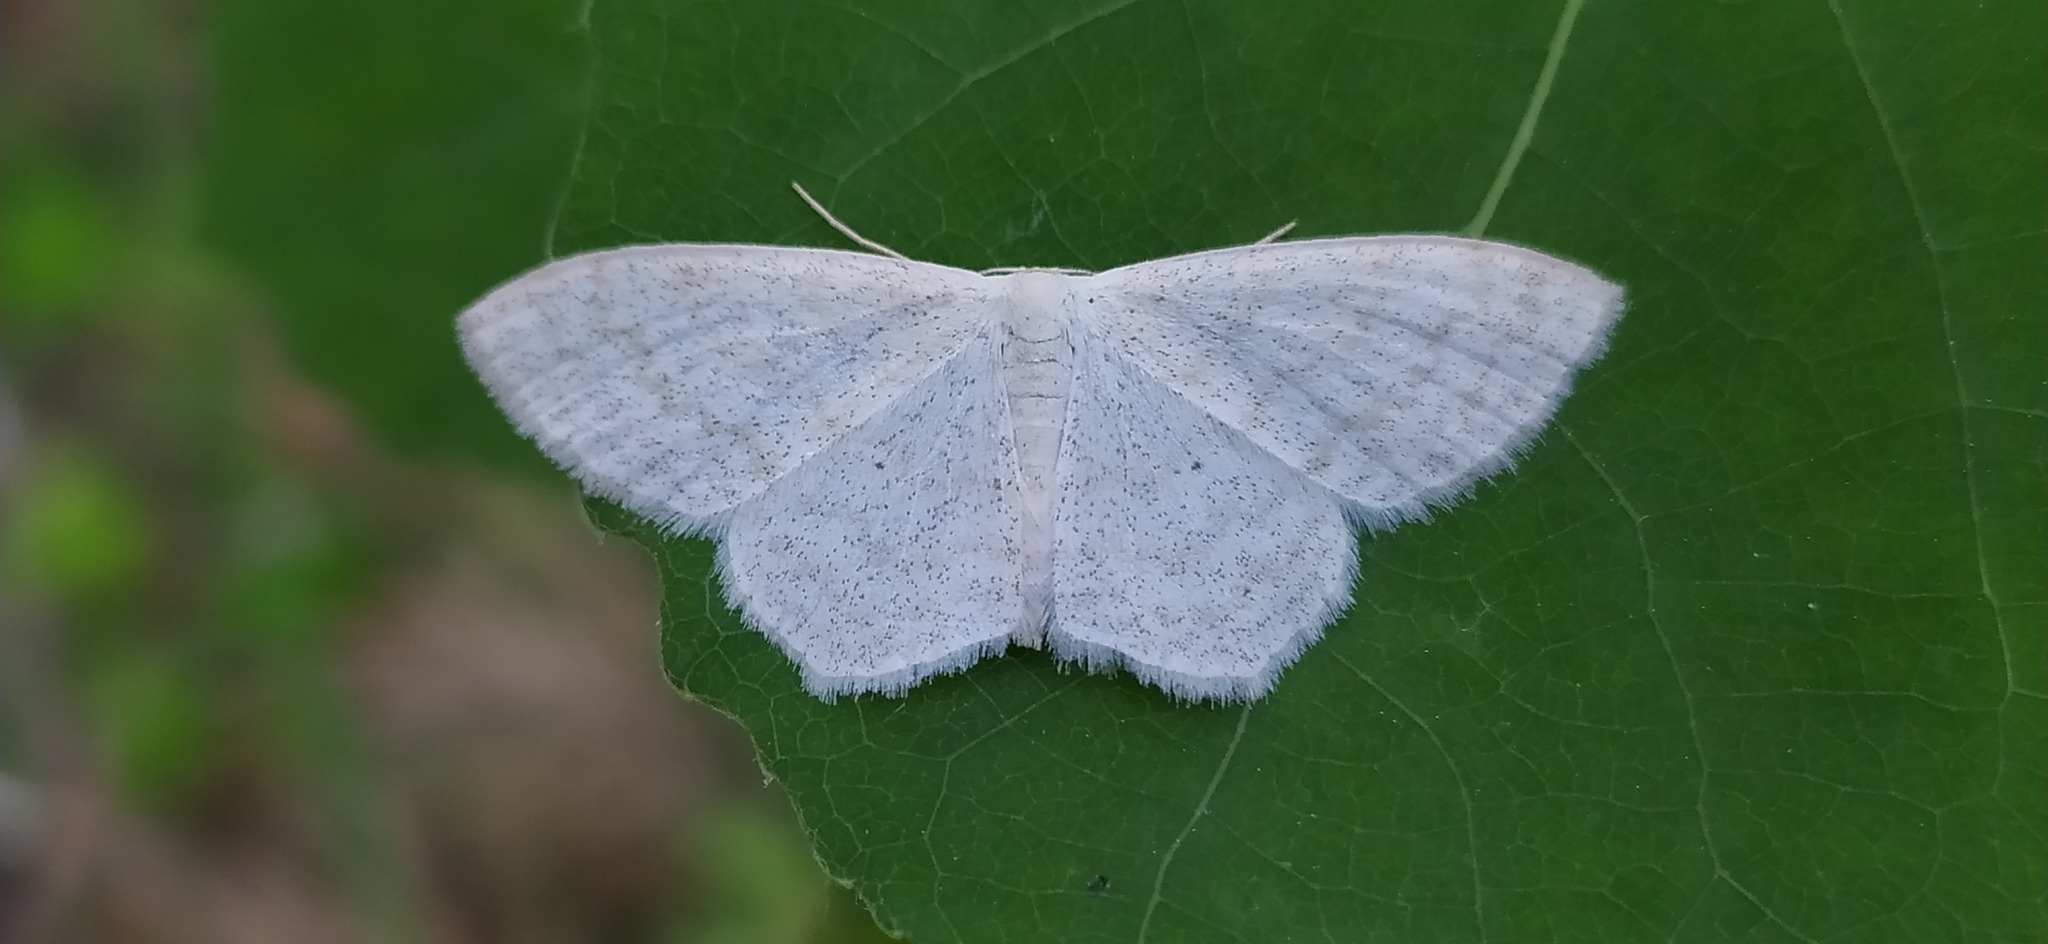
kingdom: Animalia
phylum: Arthropoda
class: Insecta
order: Lepidoptera
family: Geometridae
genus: Scopula
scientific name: Scopula floslactata
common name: Cream wave
